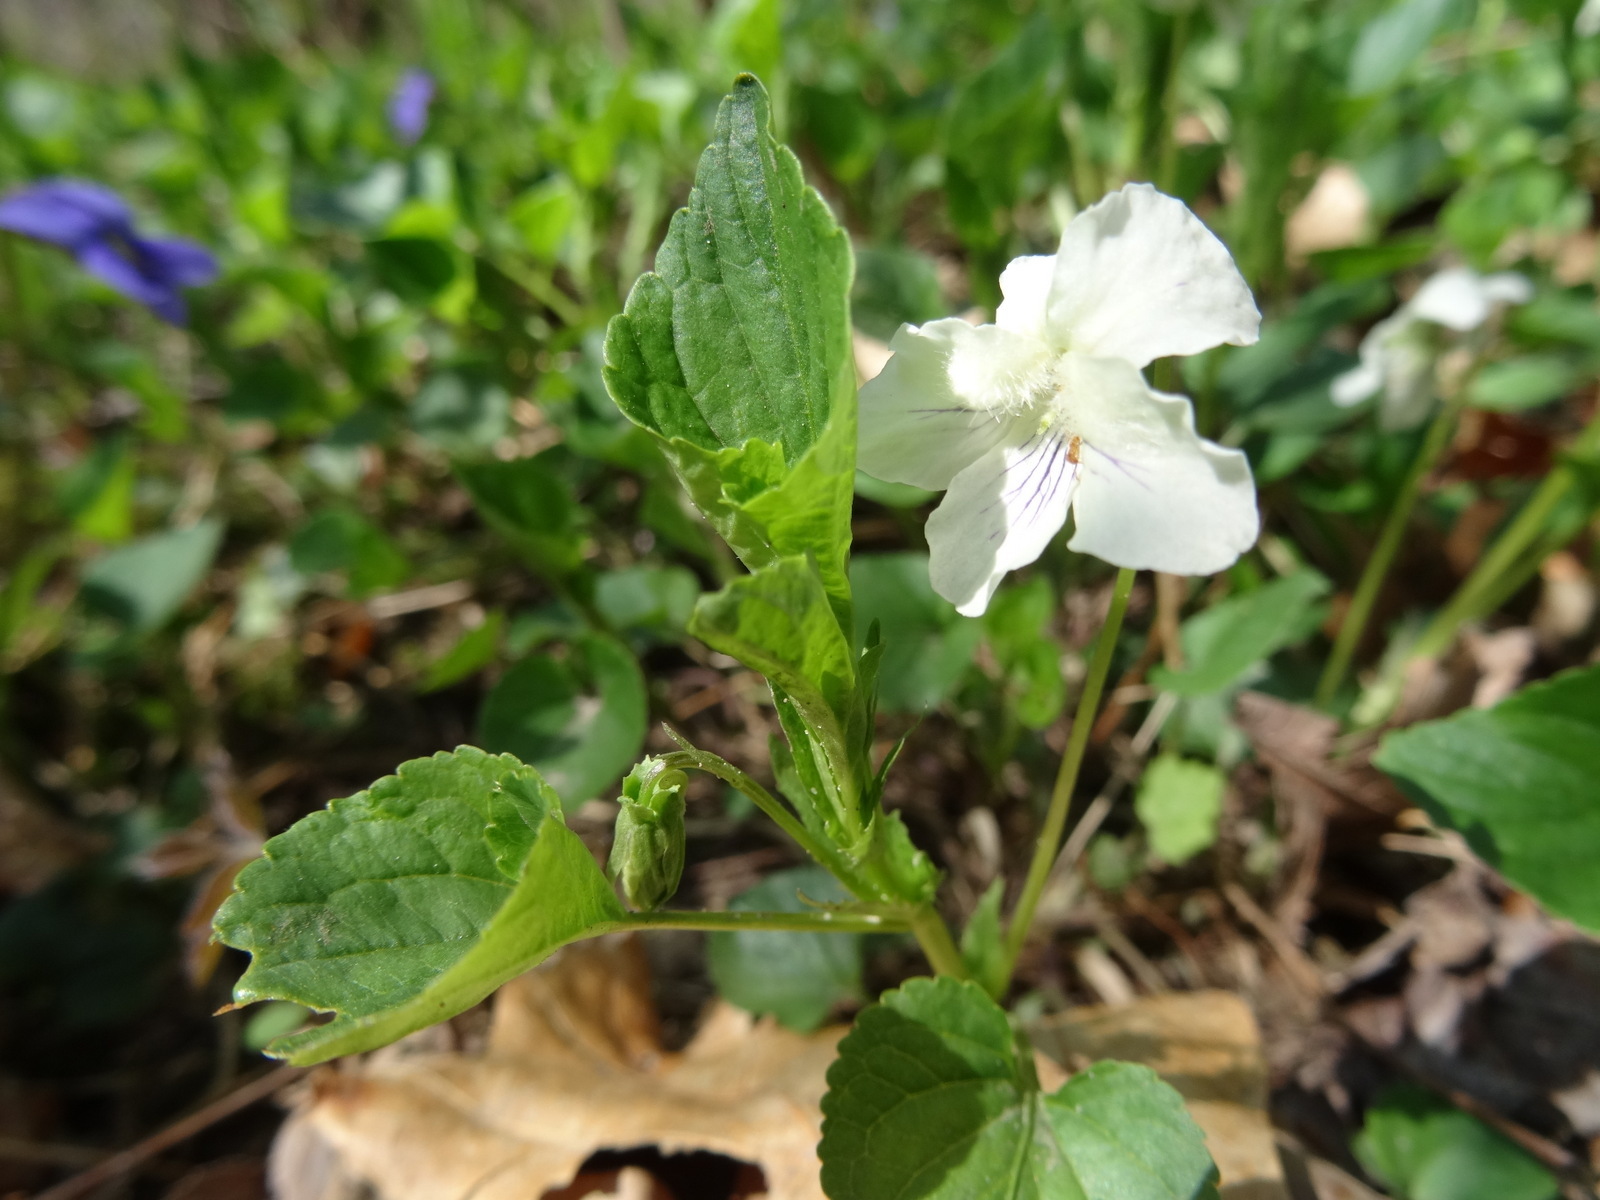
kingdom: Plantae
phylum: Tracheophyta
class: Magnoliopsida
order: Malpighiales
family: Violaceae
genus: Viola
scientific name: Viola labradorica
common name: Labrador violet
